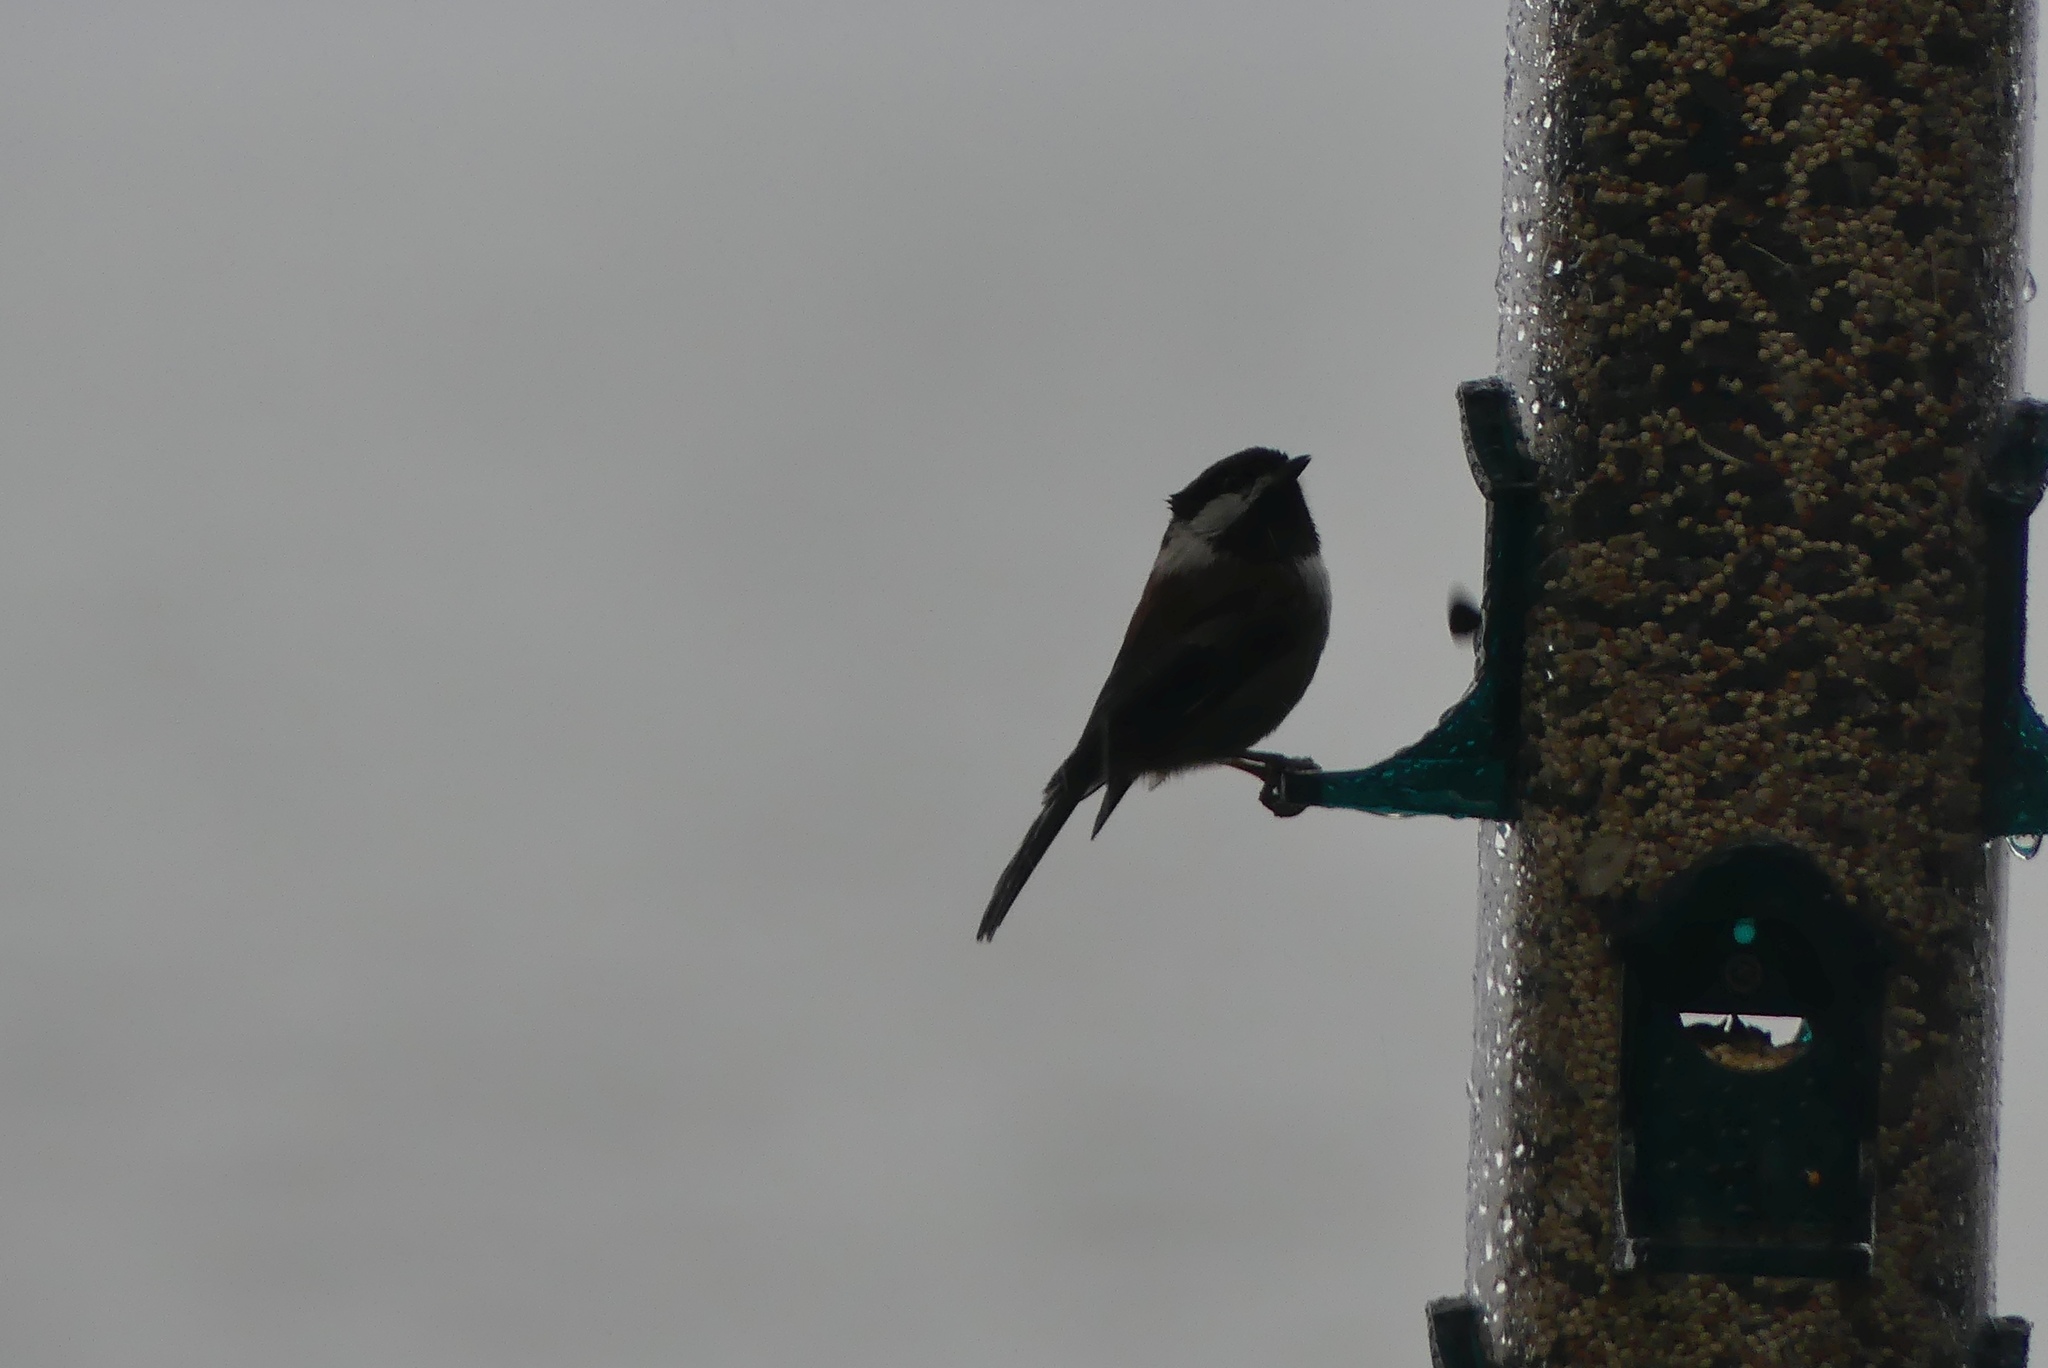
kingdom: Animalia
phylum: Chordata
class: Aves
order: Passeriformes
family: Paridae
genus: Poecile
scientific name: Poecile rufescens
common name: Chestnut-backed chickadee
